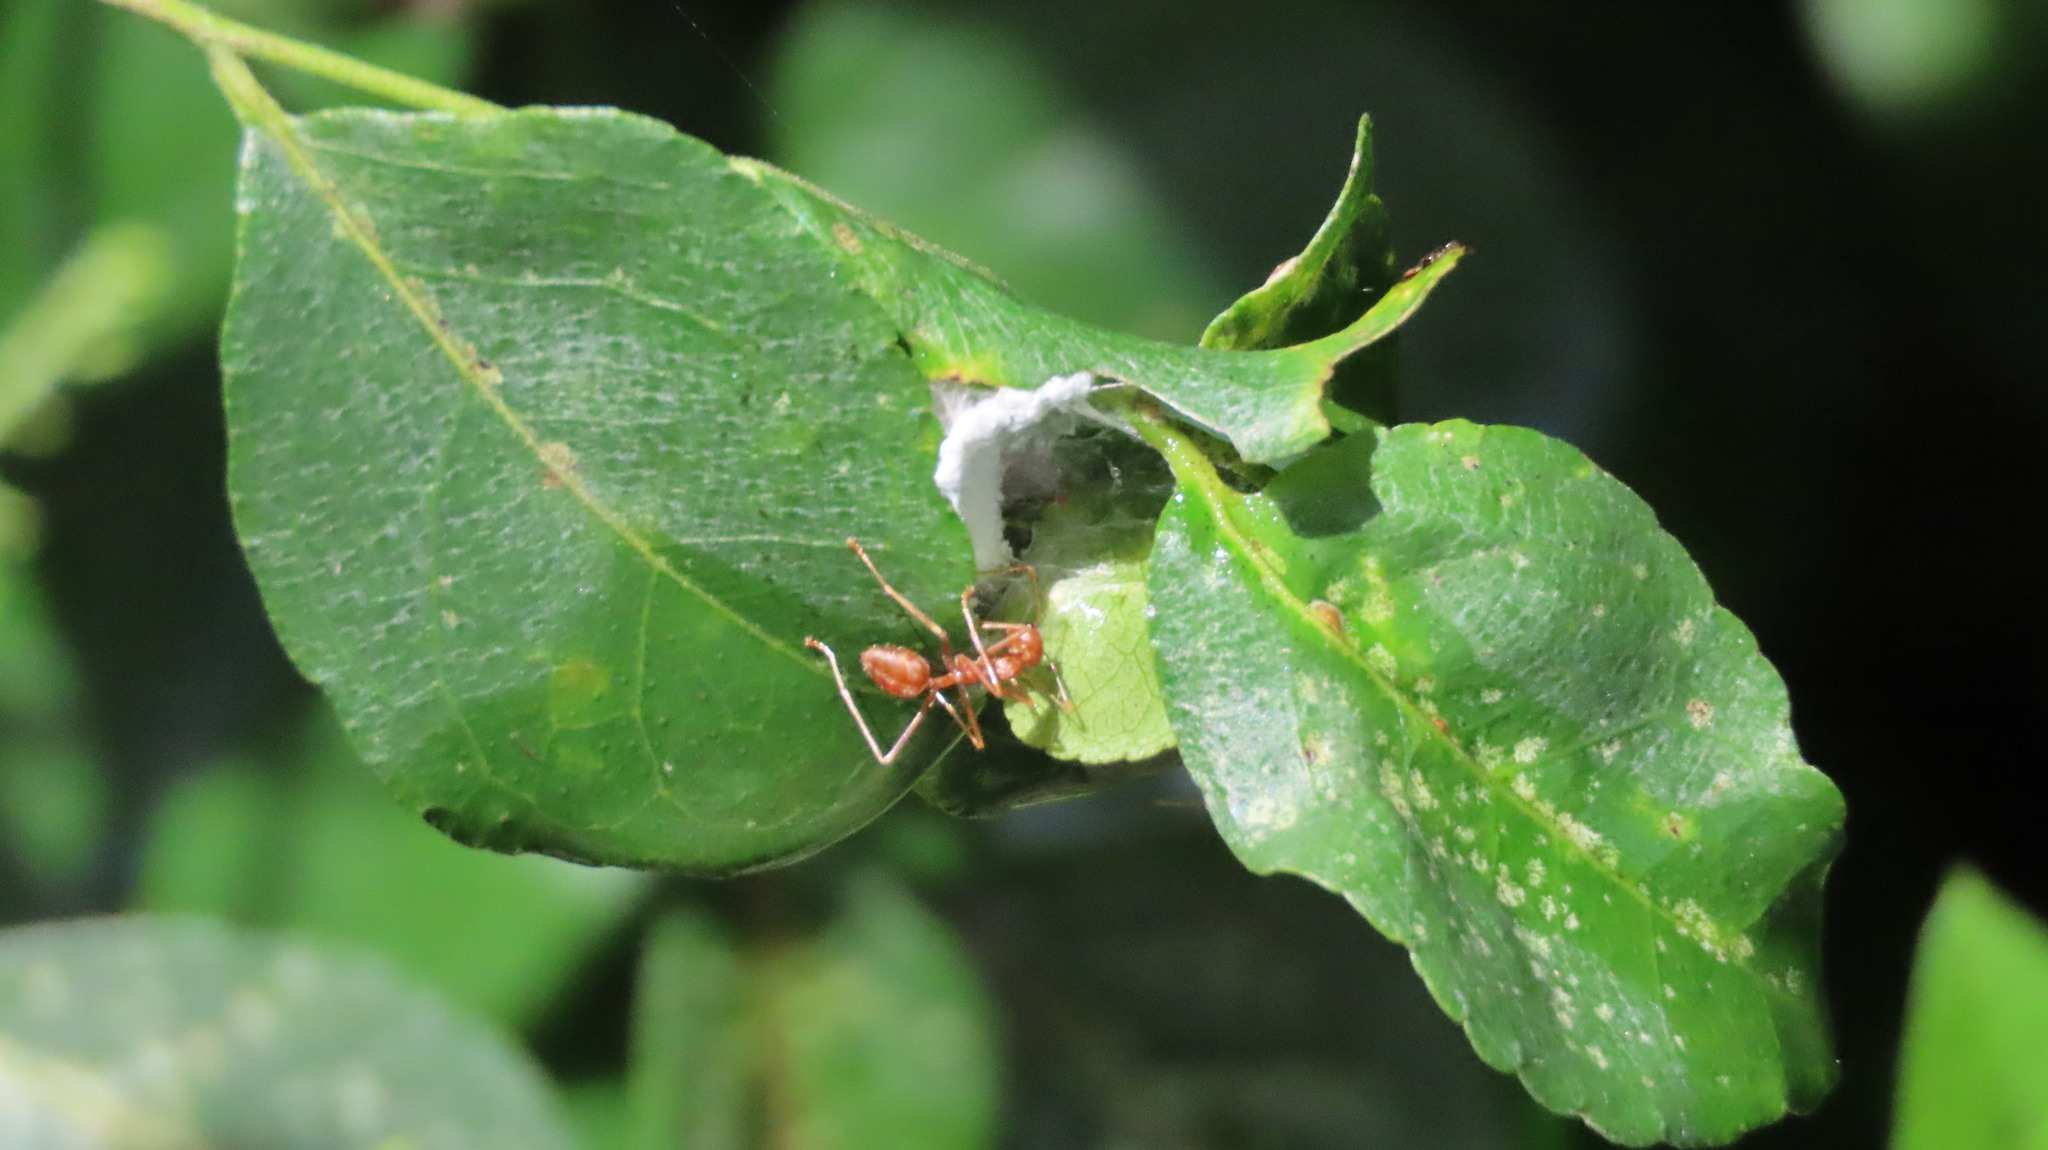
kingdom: Animalia
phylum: Arthropoda
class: Insecta
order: Hymenoptera
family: Formicidae
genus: Oecophylla
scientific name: Oecophylla smaragdina
